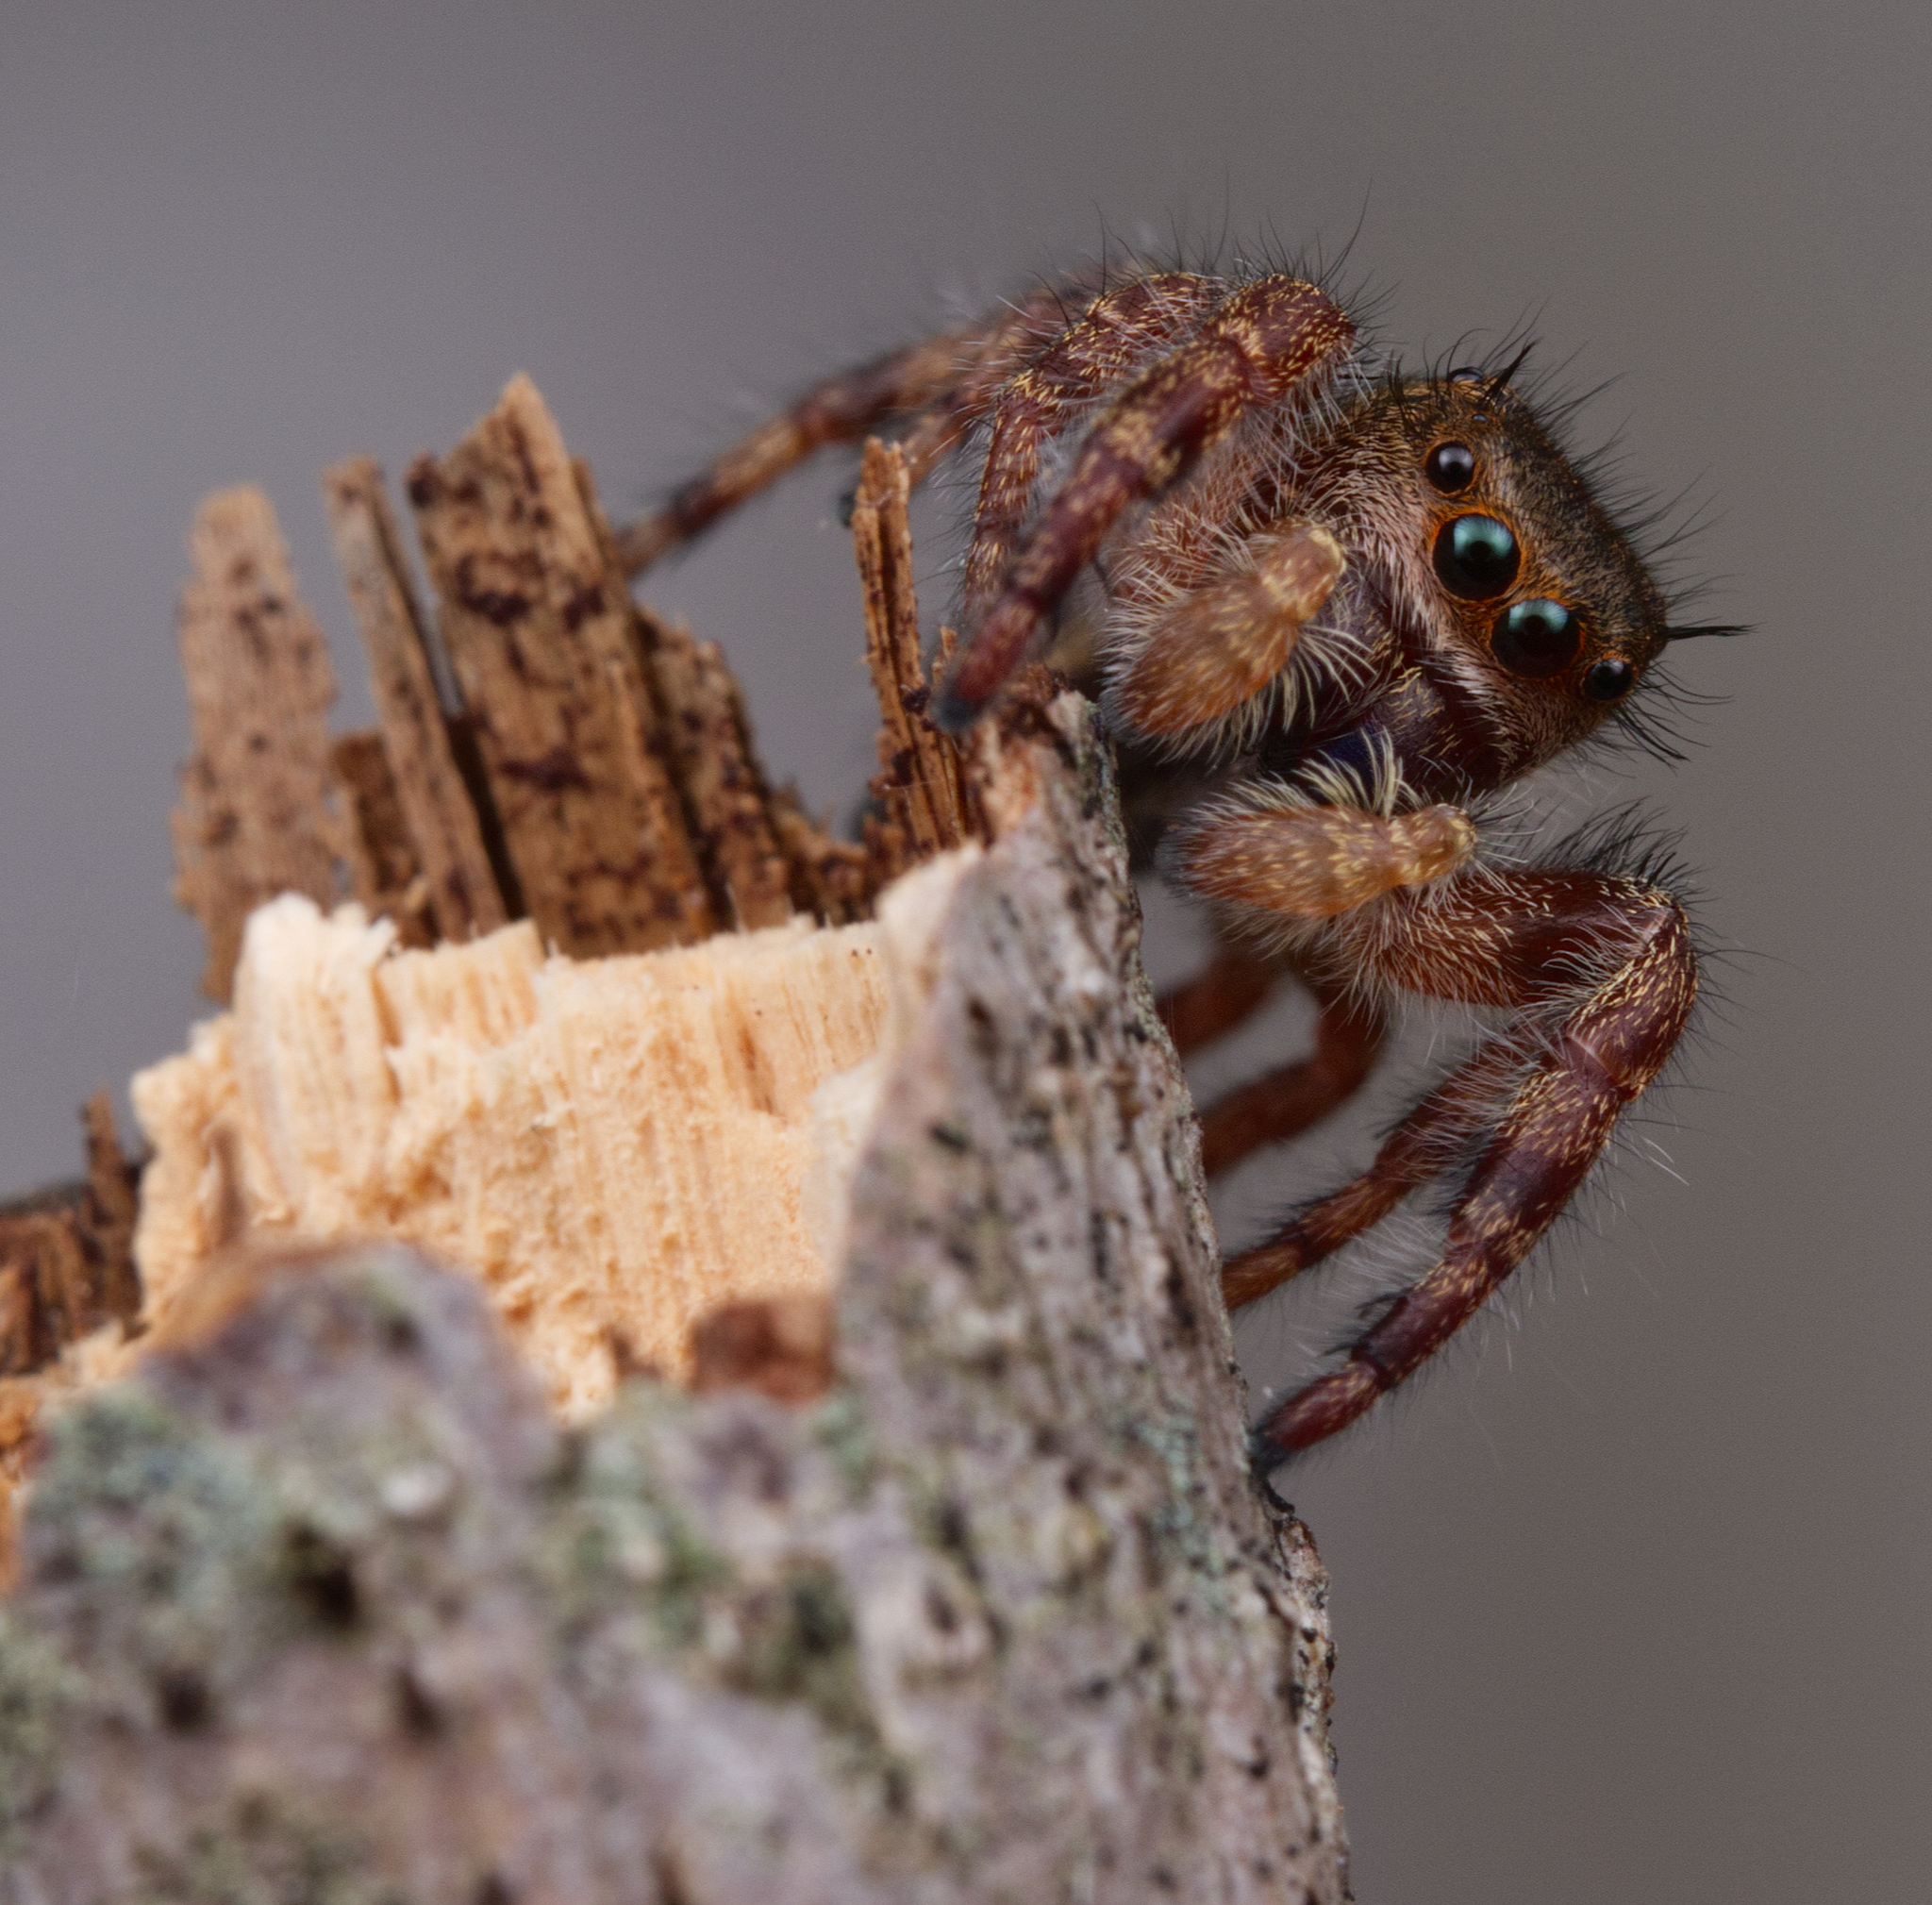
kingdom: Animalia
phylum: Arthropoda
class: Arachnida
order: Araneae
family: Salticidae
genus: Phidippus
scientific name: Phidippus princeps
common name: Grayish jumping spider
